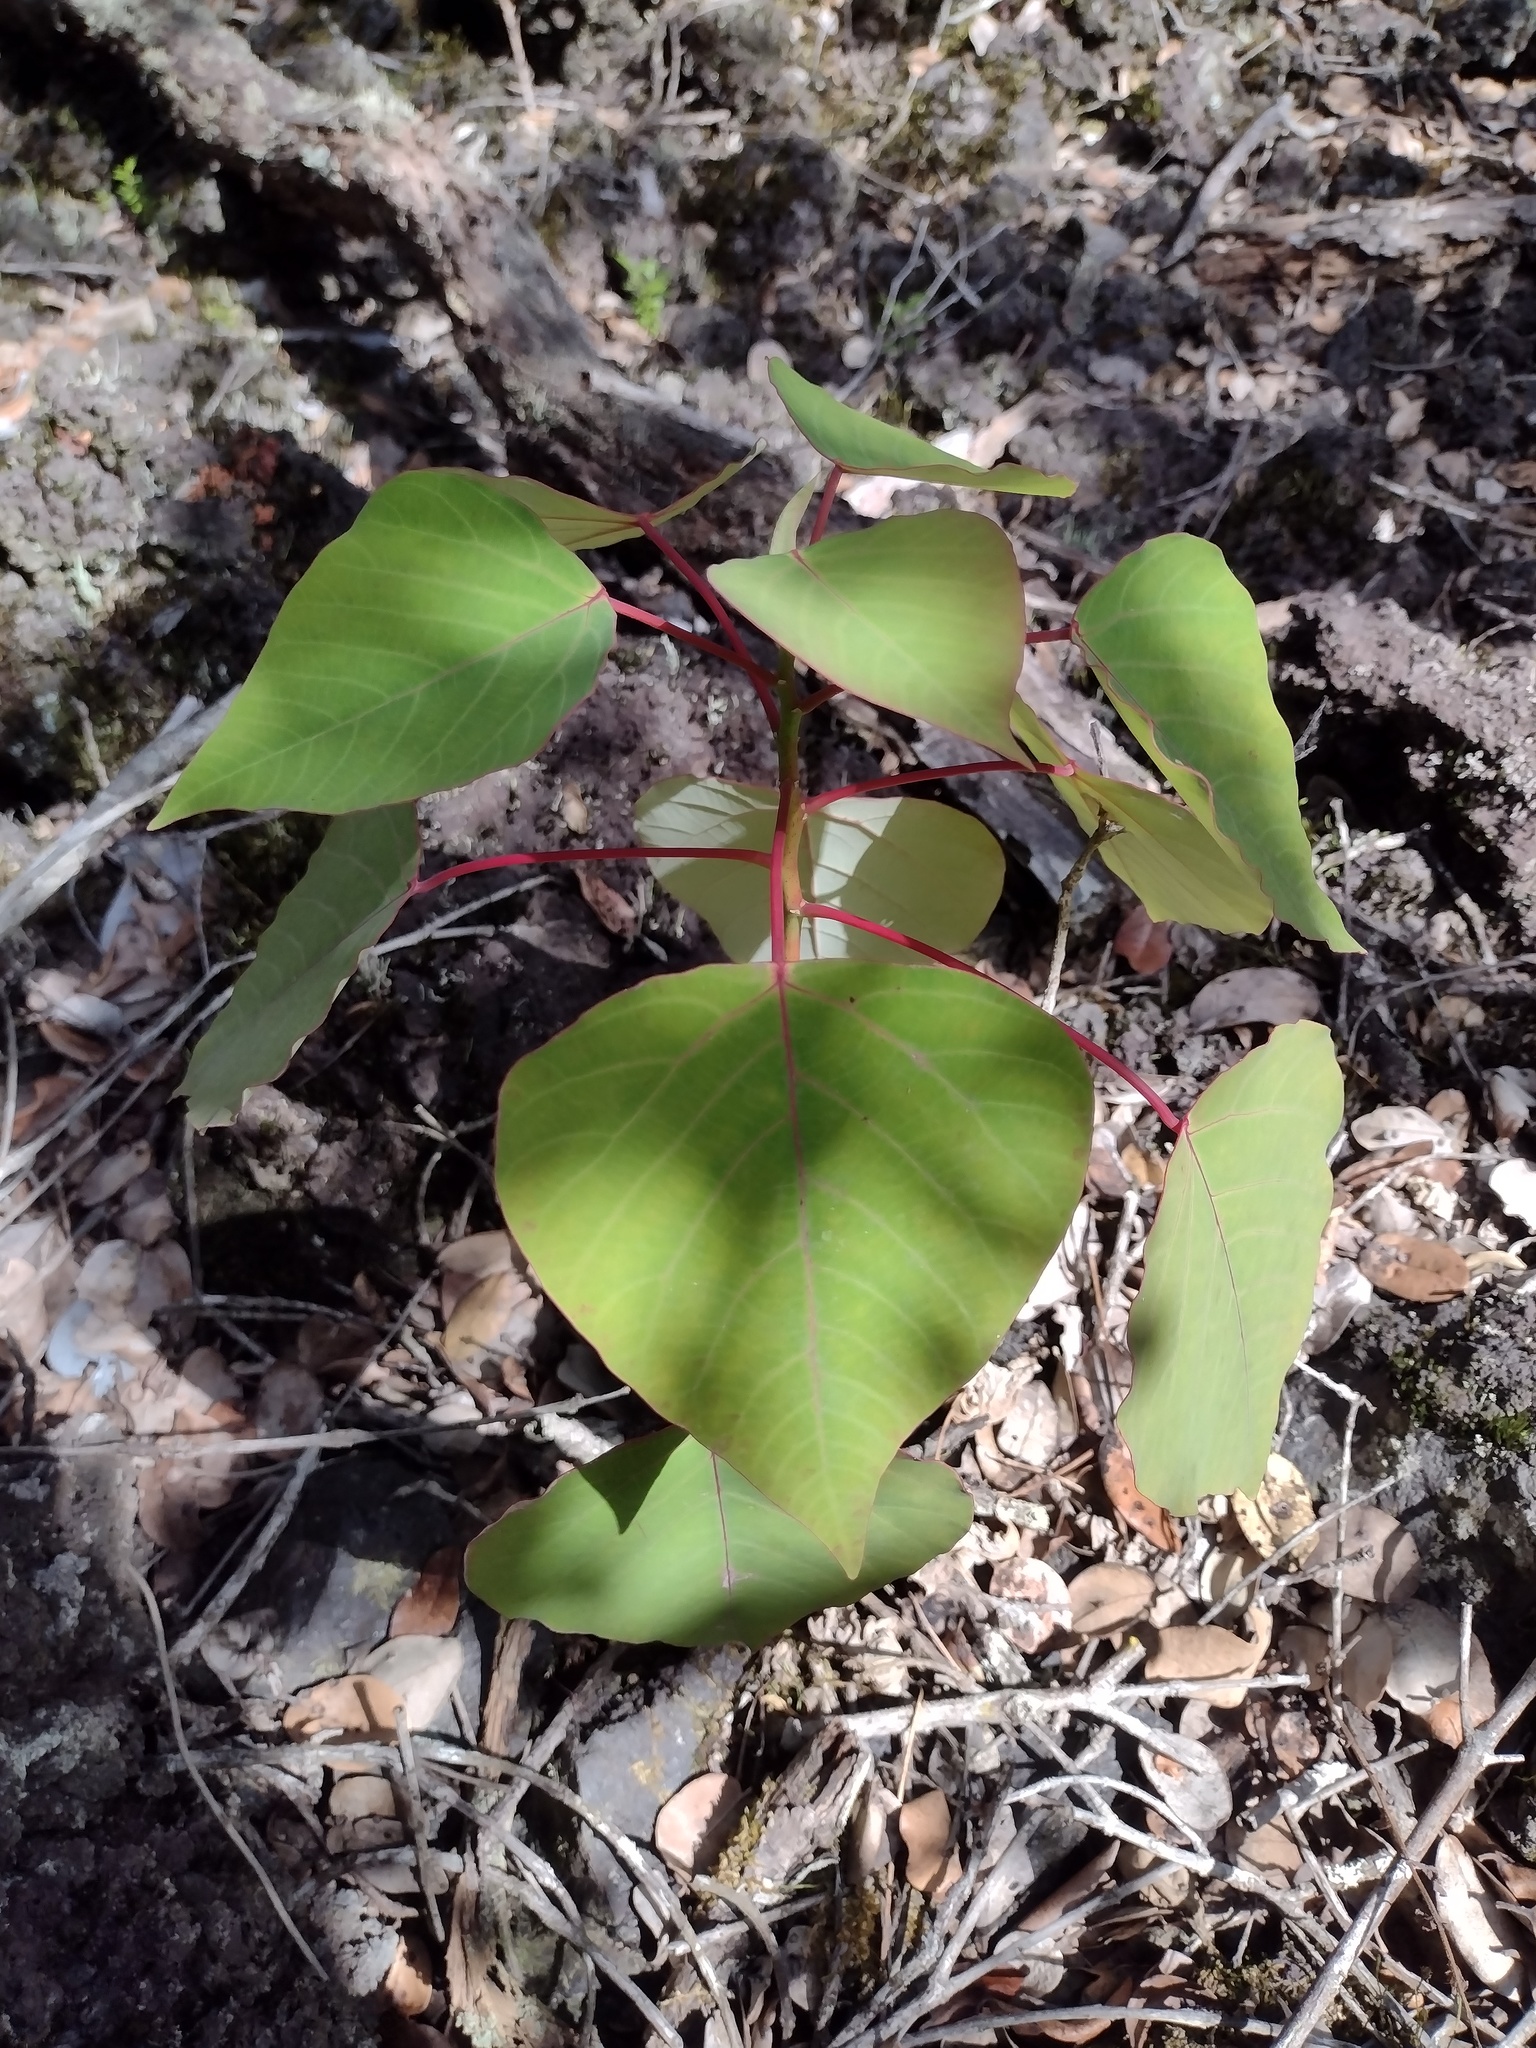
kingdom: Plantae
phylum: Tracheophyta
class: Magnoliopsida
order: Malpighiales
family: Euphorbiaceae
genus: Homalanthus
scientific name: Homalanthus populifolius
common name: Queensland poplar
